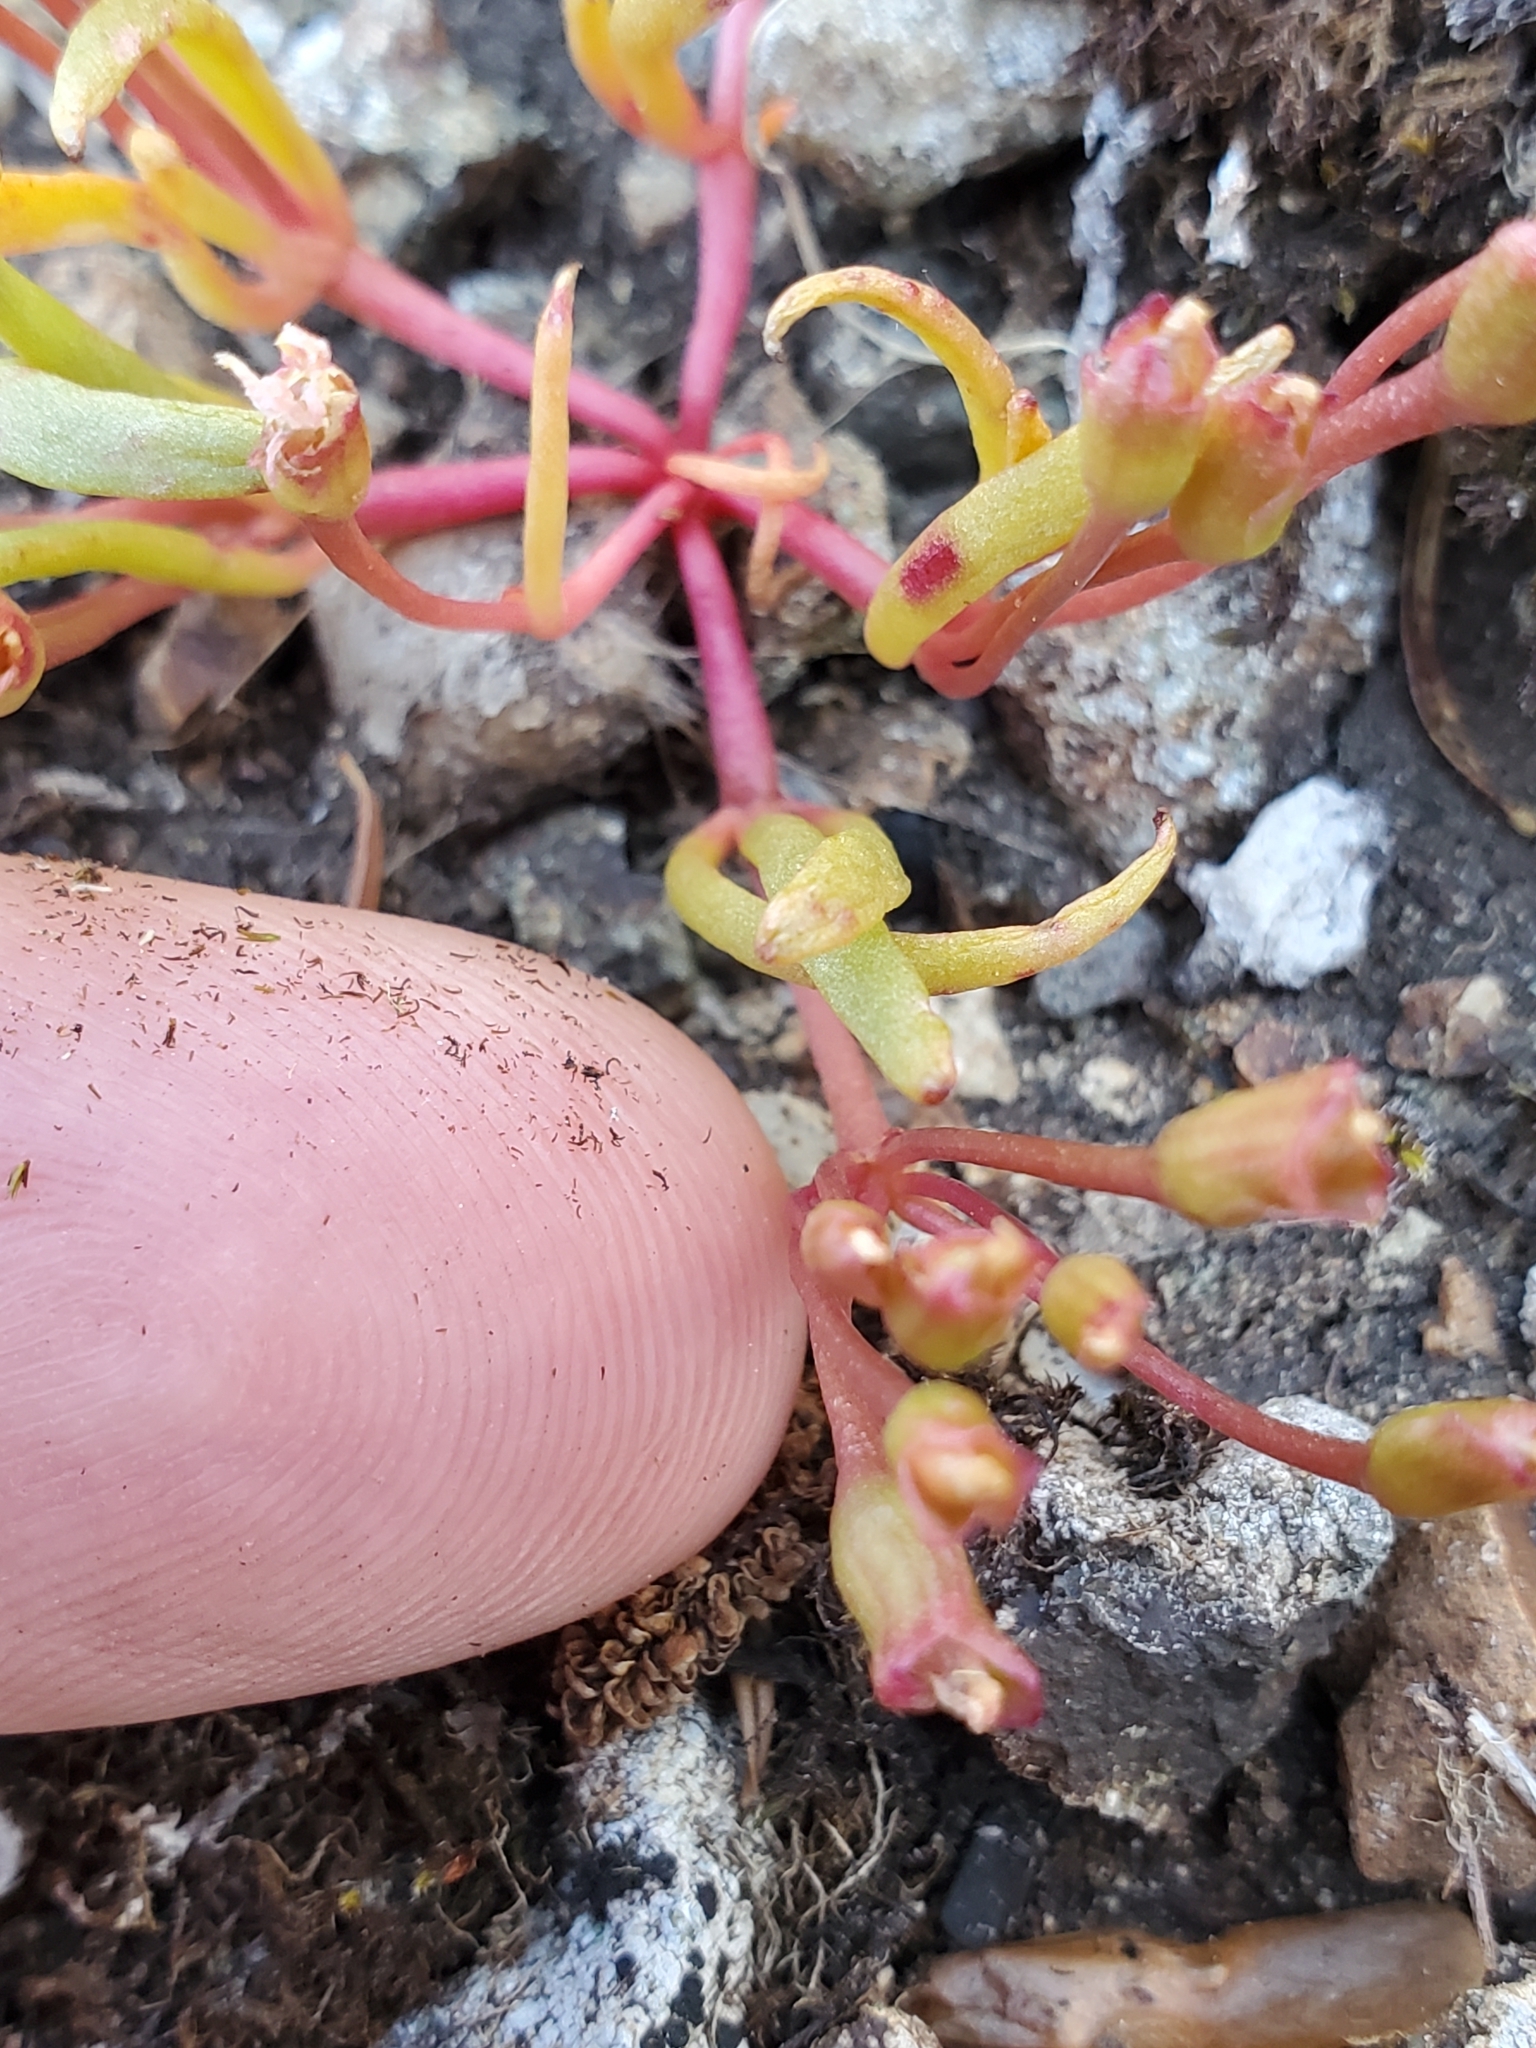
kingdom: Plantae
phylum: Tracheophyta
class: Magnoliopsida
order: Caryophyllales
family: Montiaceae
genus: Lewisia
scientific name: Lewisia triphylla
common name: Three-leaved bitterroot
